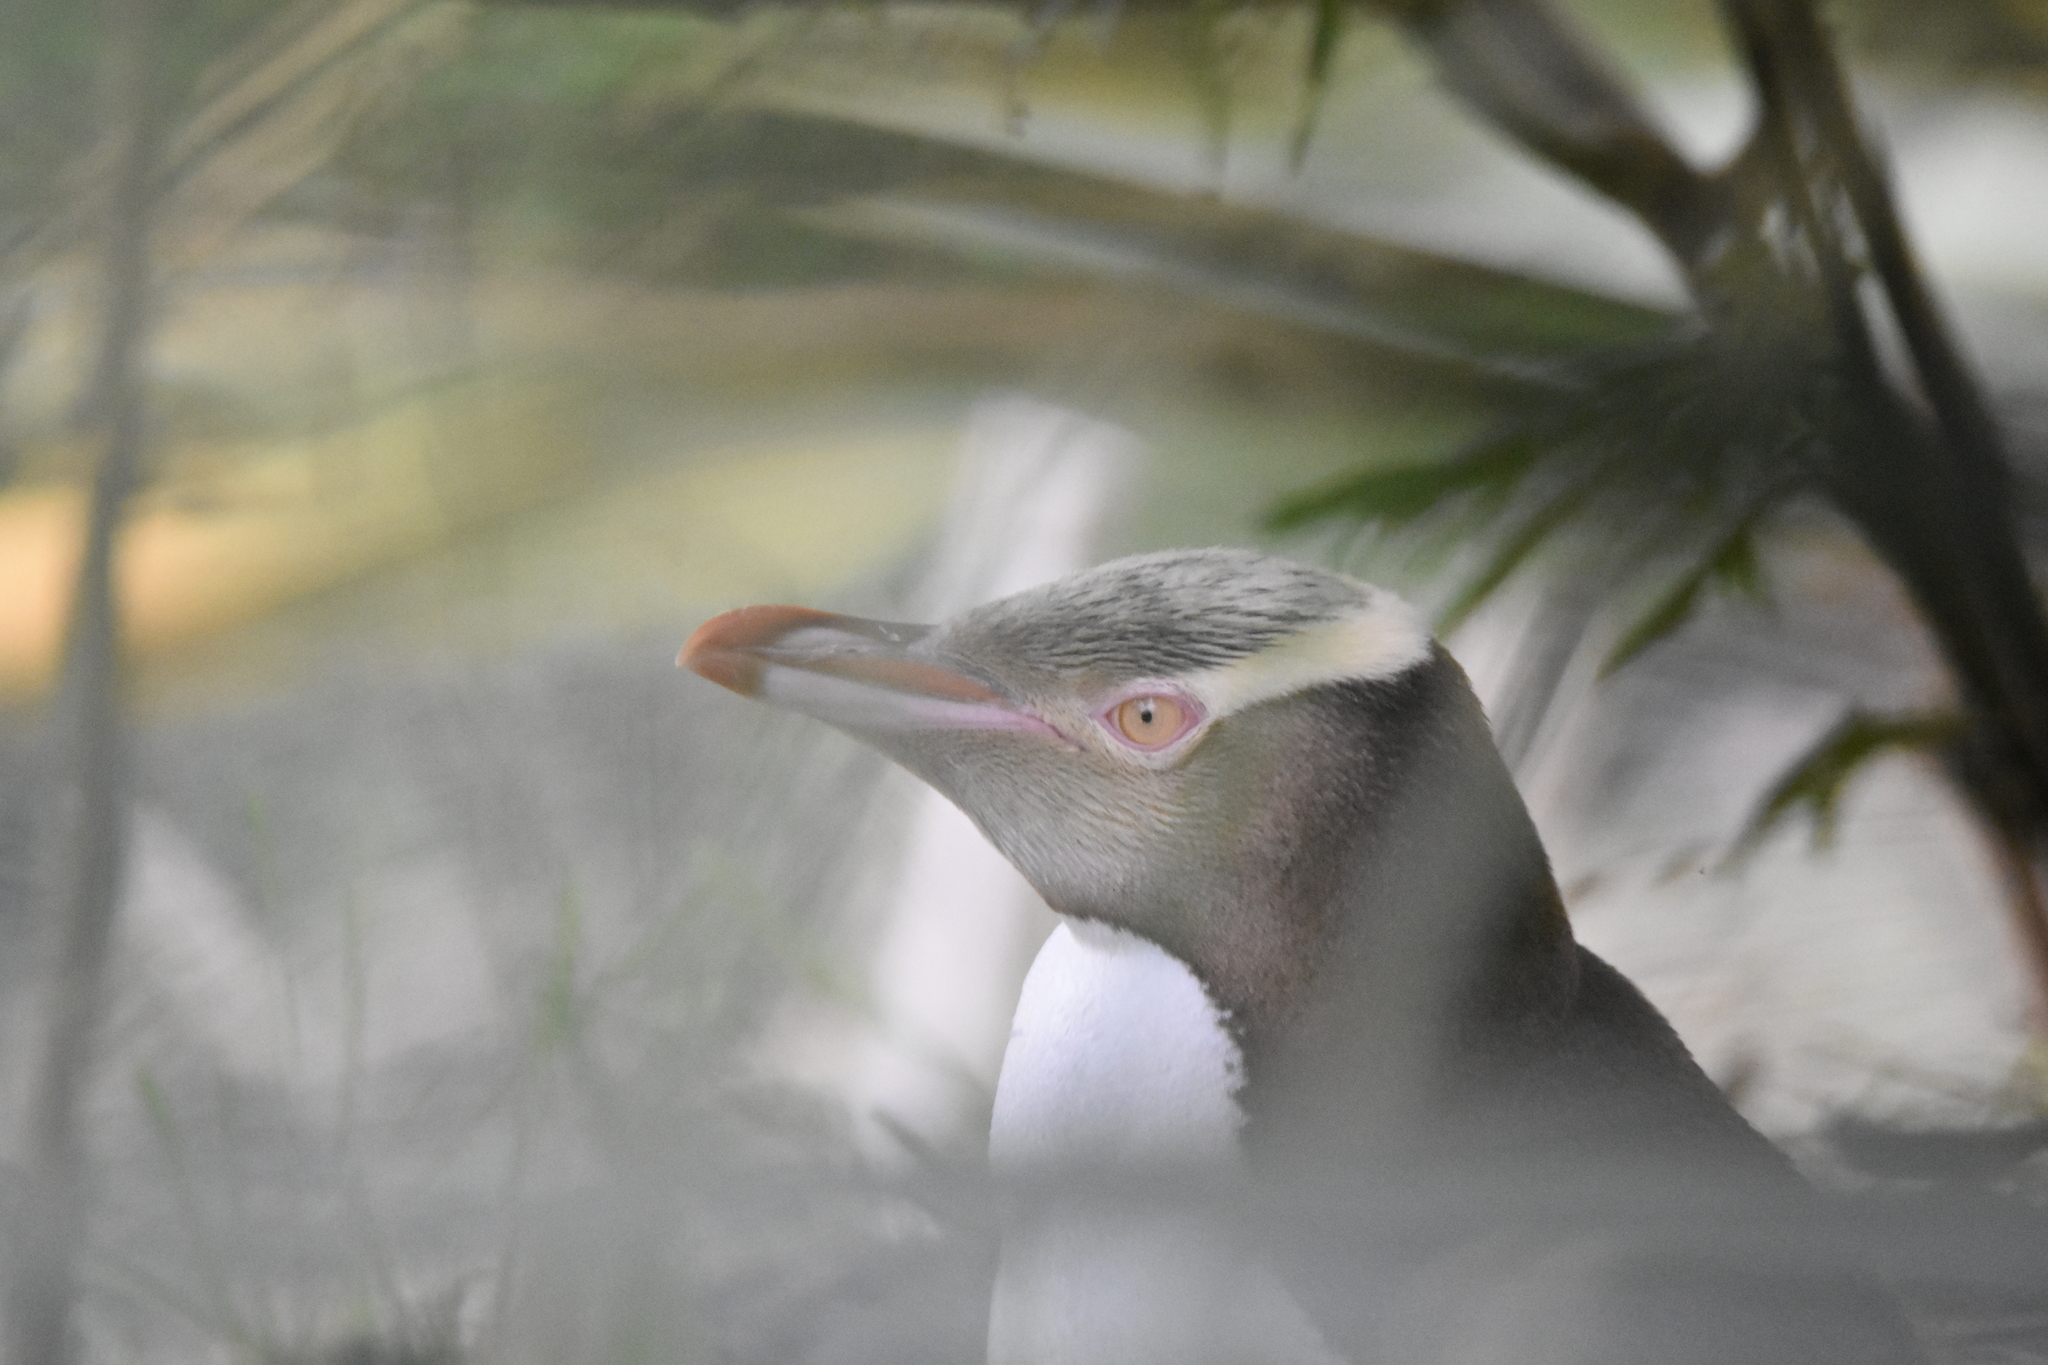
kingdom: Animalia
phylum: Chordata
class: Aves
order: Sphenisciformes
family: Spheniscidae
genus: Megadyptes
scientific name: Megadyptes antipodes
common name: Yellow-eyed penguin
